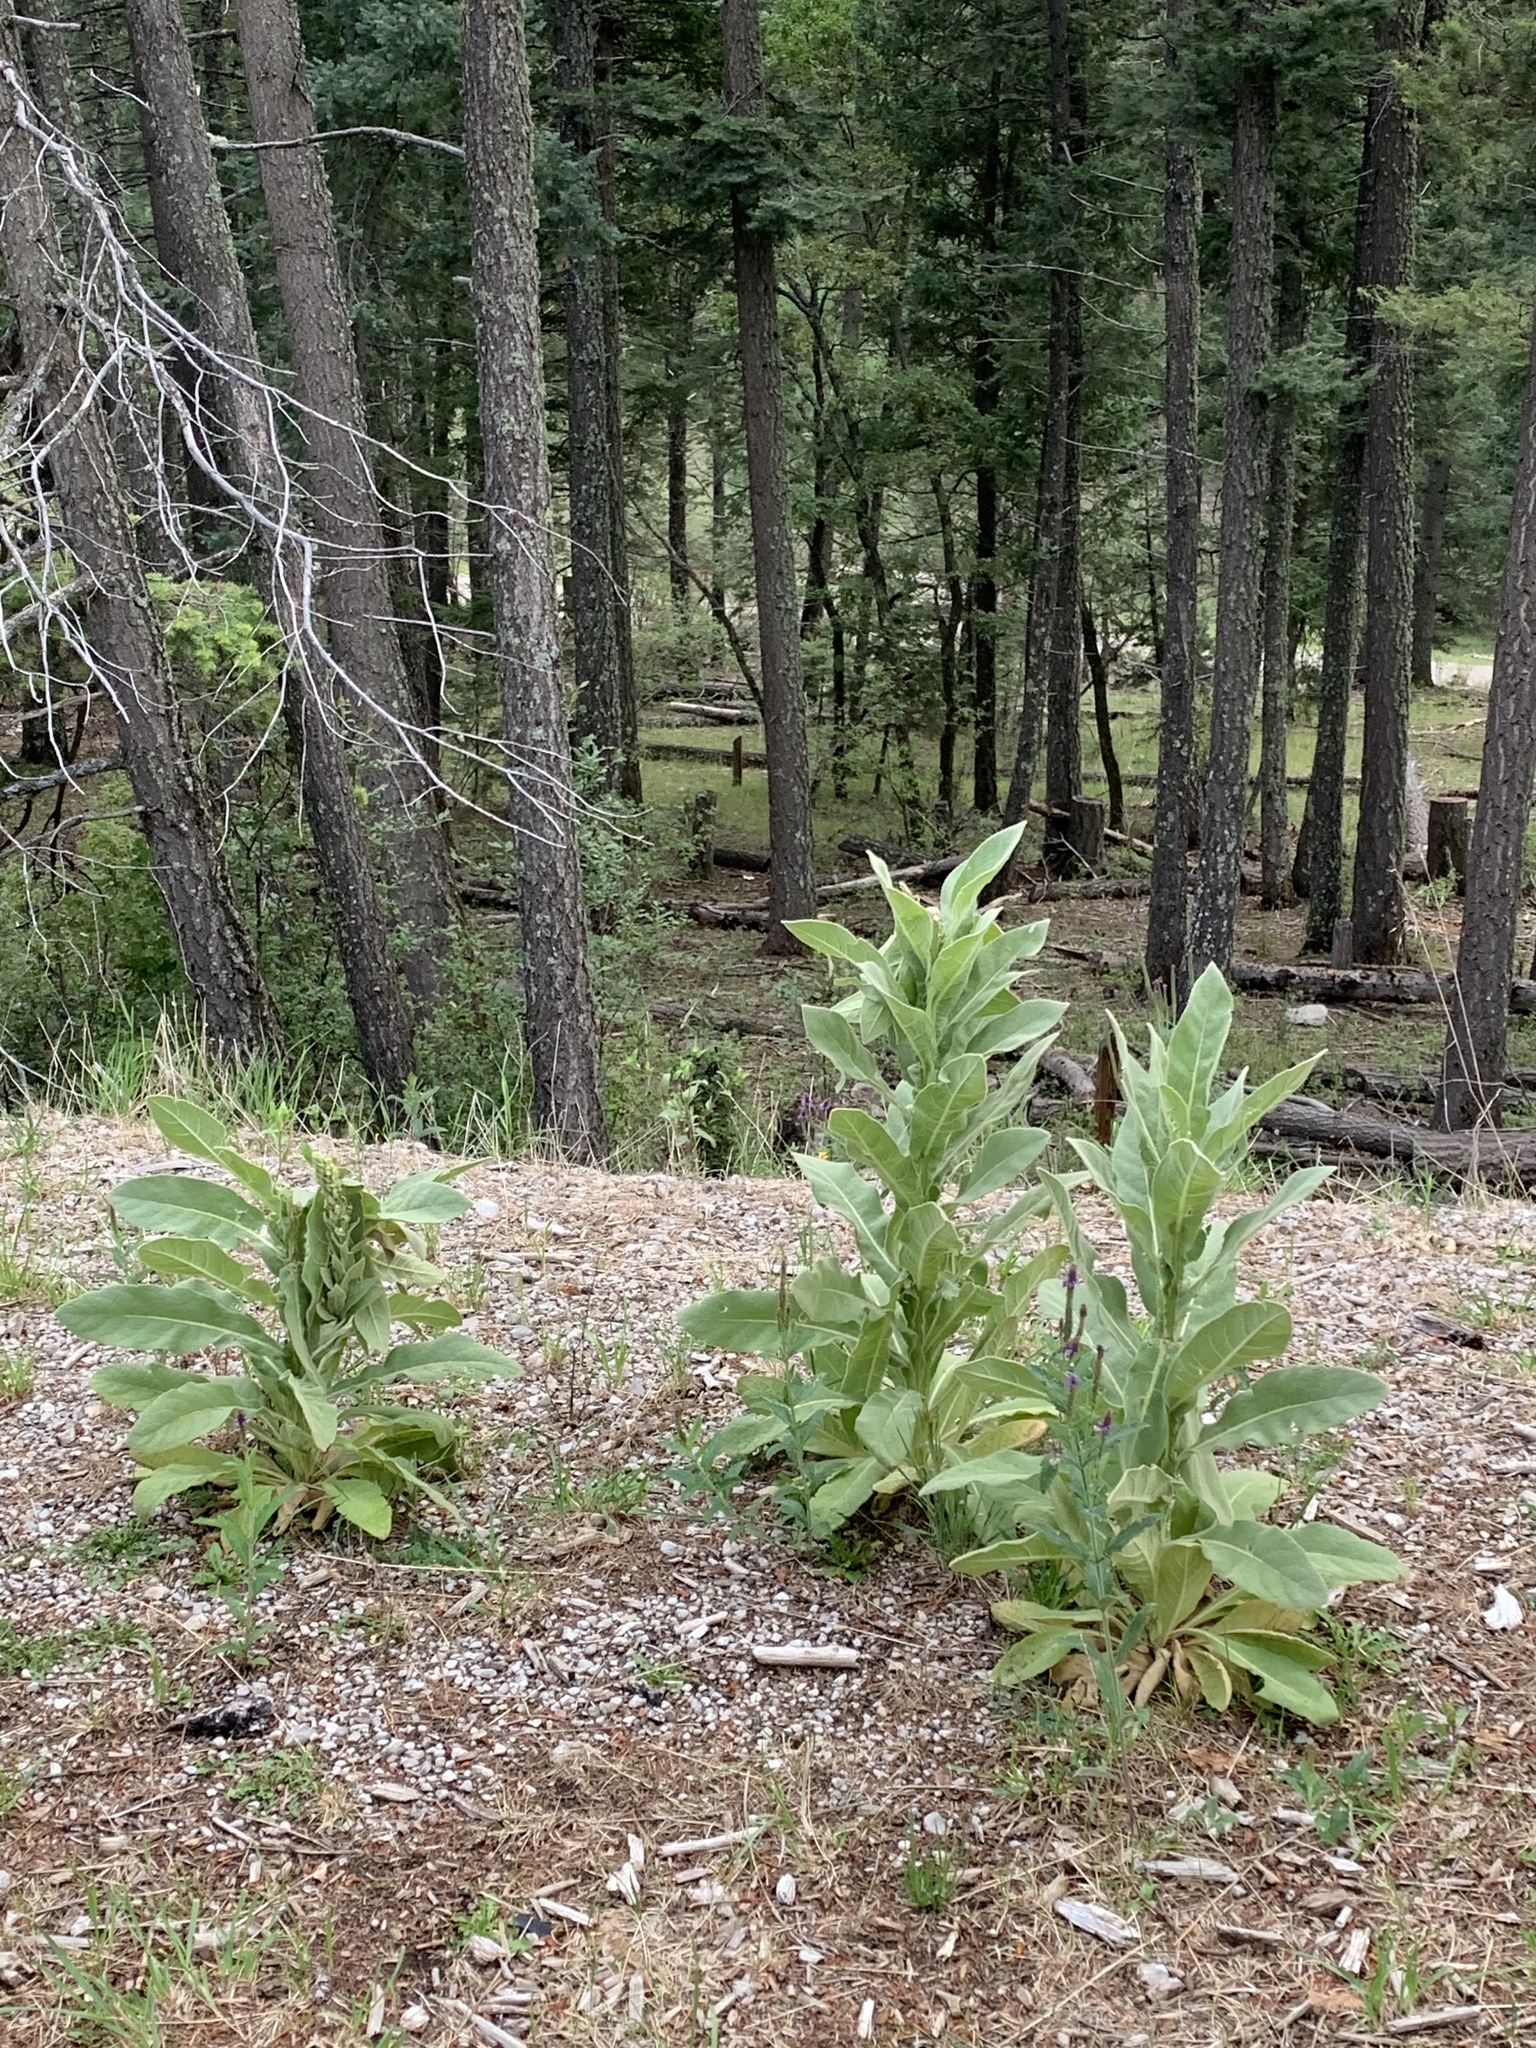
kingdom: Plantae
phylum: Tracheophyta
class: Magnoliopsida
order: Lamiales
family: Scrophulariaceae
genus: Verbascum
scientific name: Verbascum thapsus
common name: Common mullein
